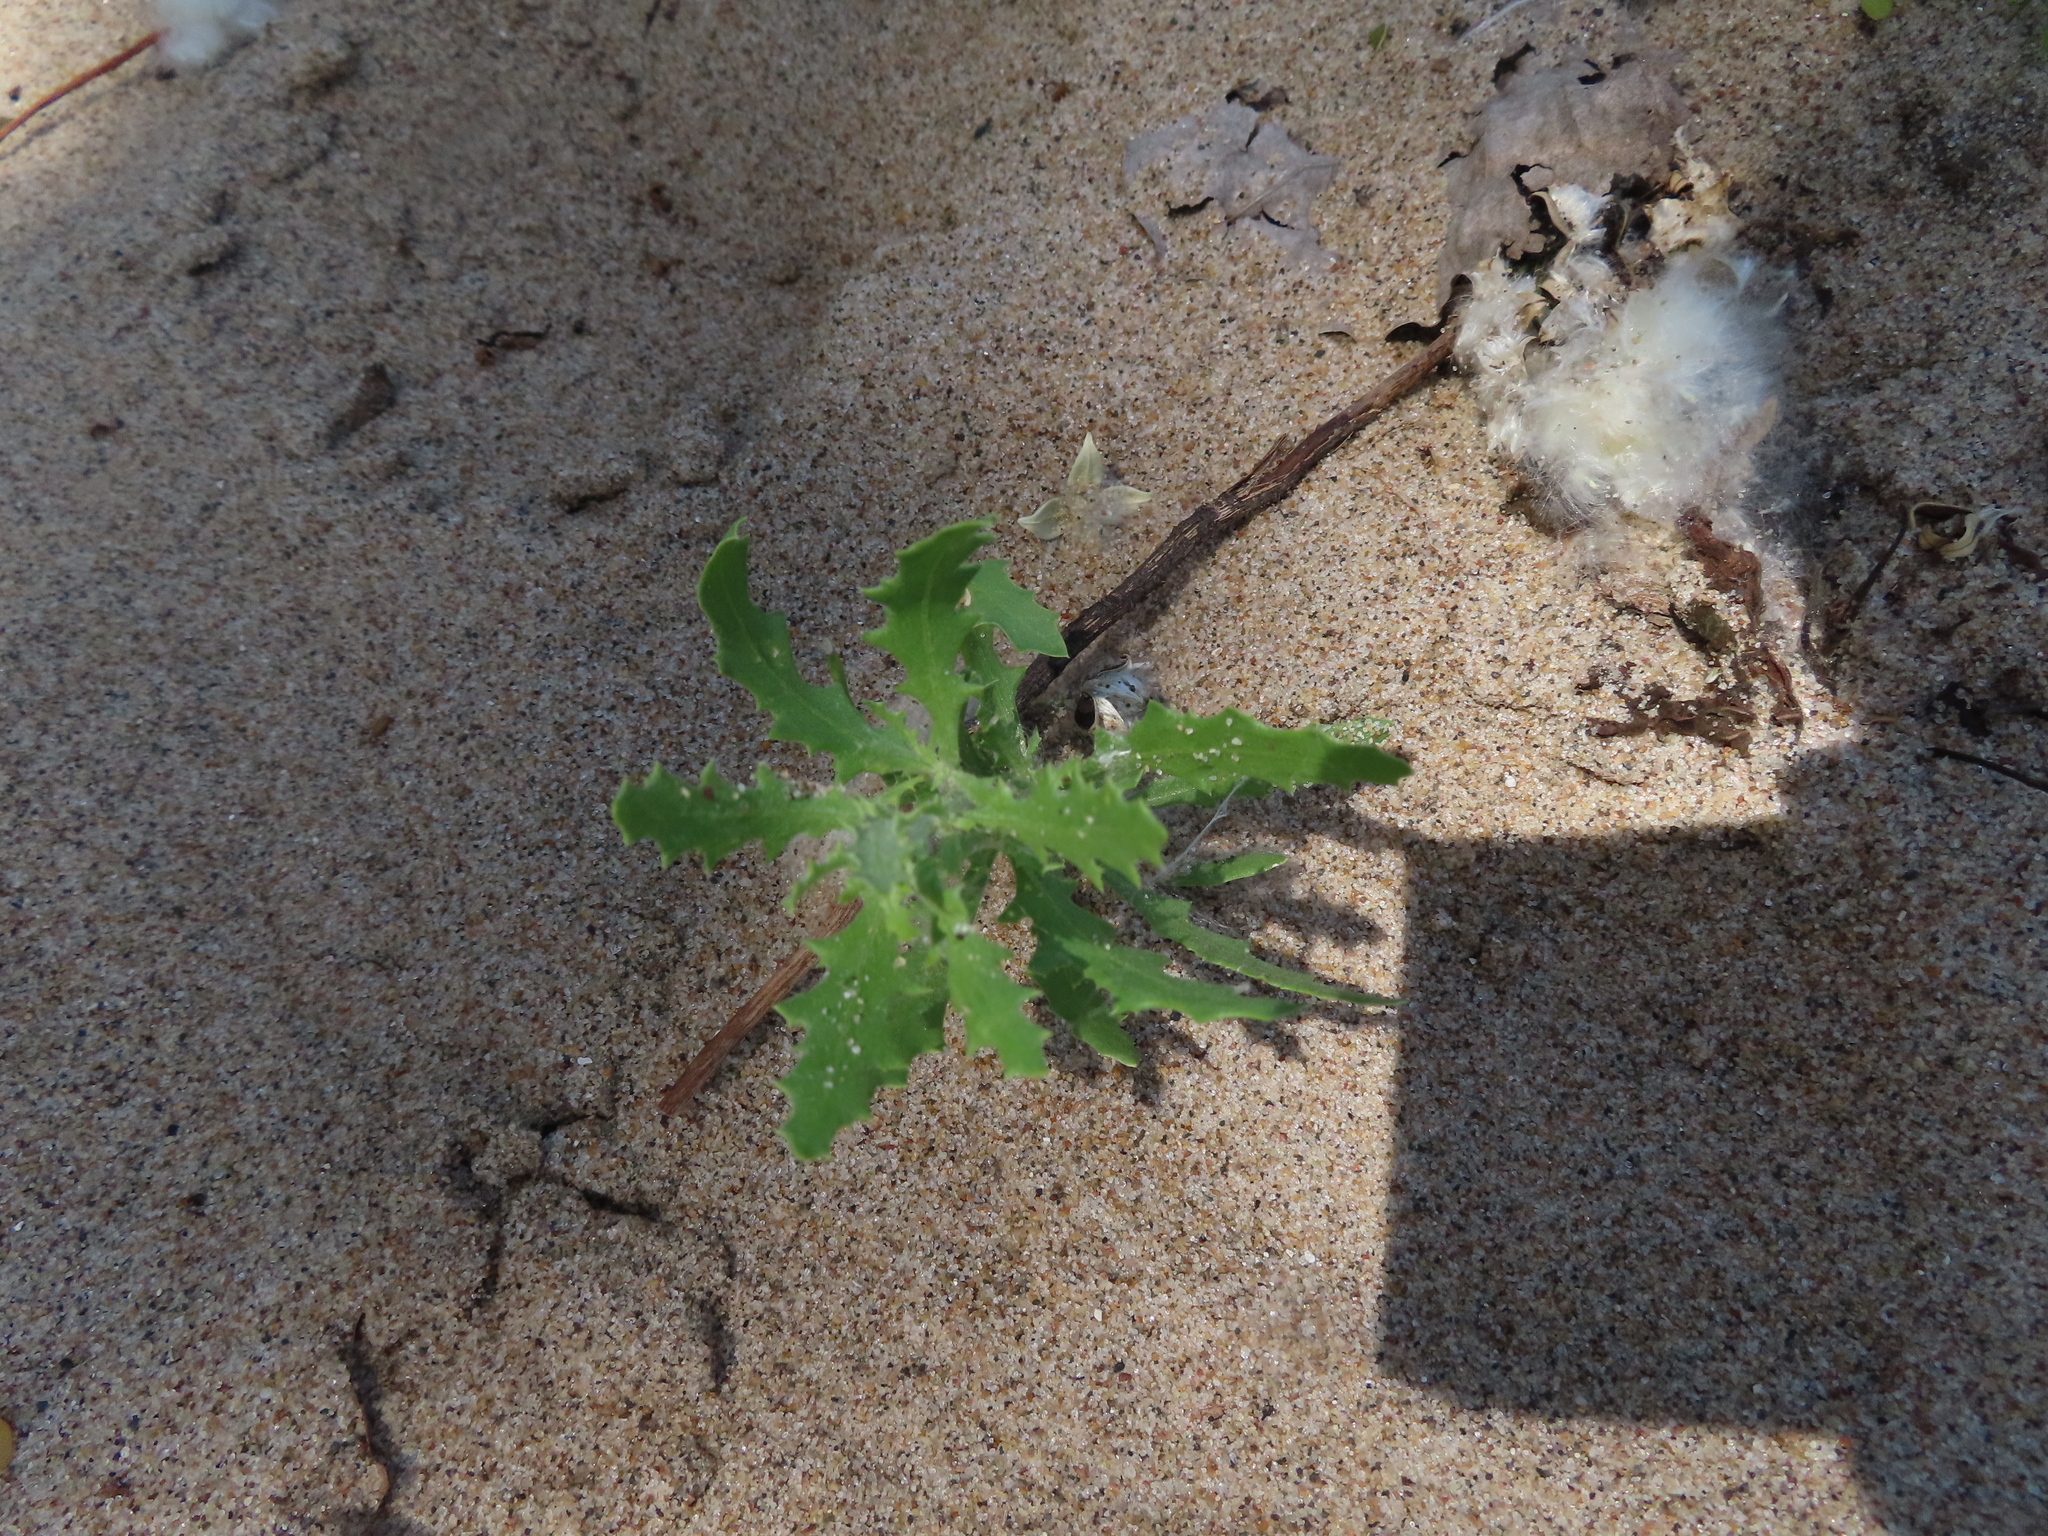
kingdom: Plantae
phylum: Tracheophyta
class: Magnoliopsida
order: Caryophyllales
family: Amaranthaceae
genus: Dysphania
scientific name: Dysphania atriplicifolia
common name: Plains tumbleweed
